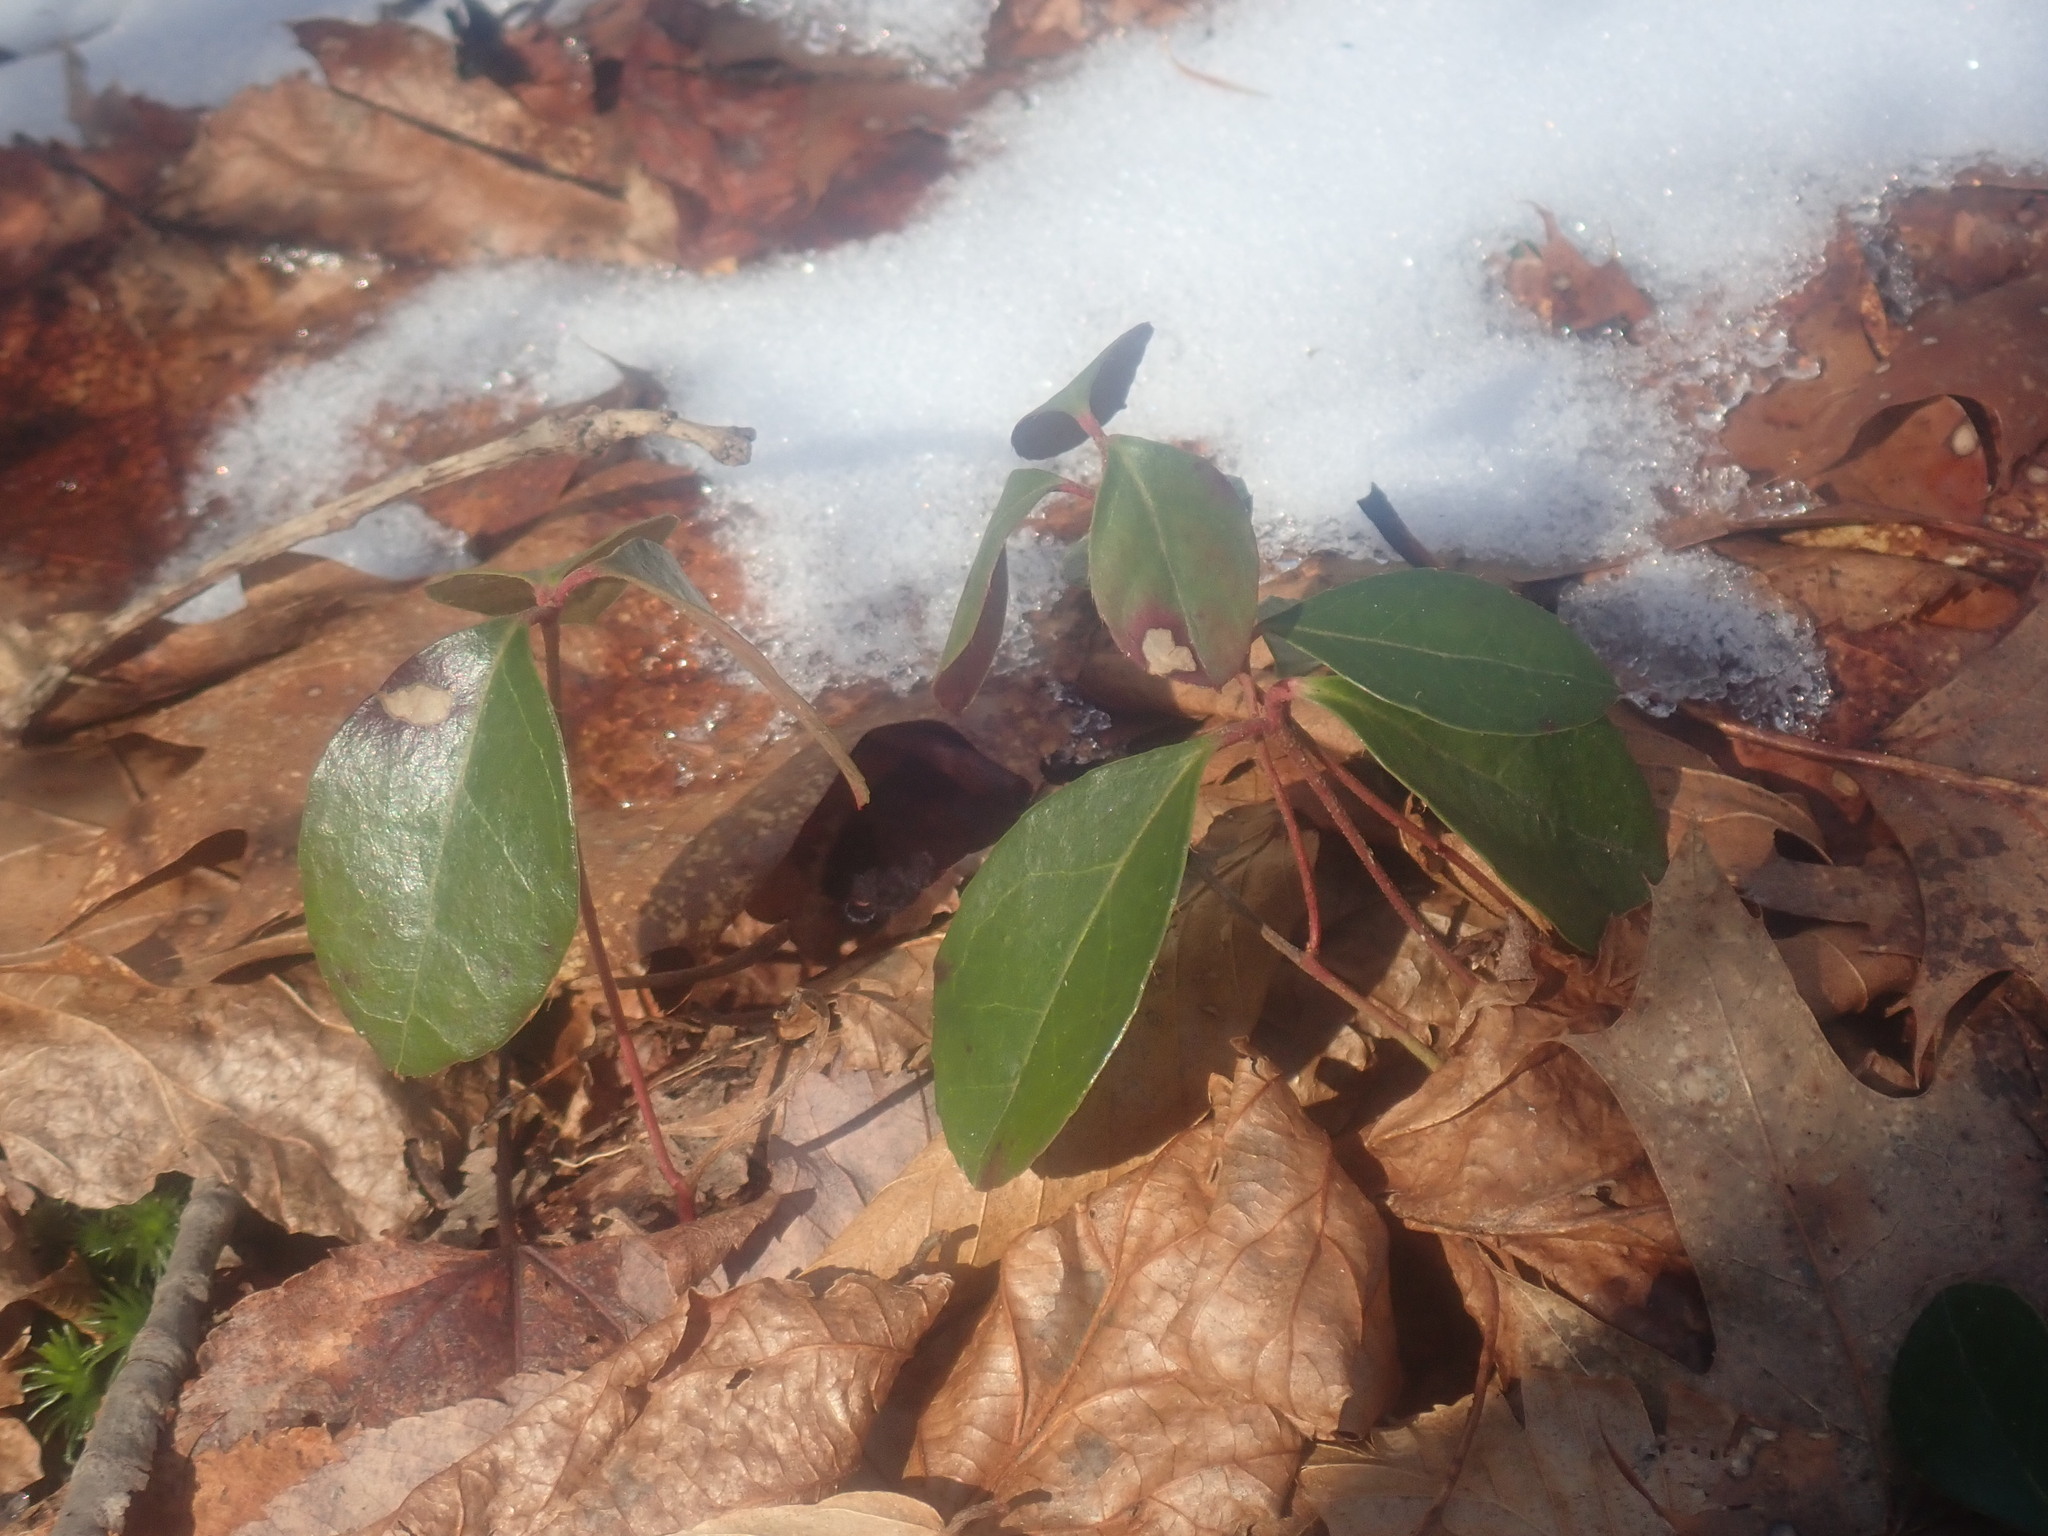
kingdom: Plantae
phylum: Tracheophyta
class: Magnoliopsida
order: Ericales
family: Ericaceae
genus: Gaultheria
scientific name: Gaultheria procumbens
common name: Checkerberry
